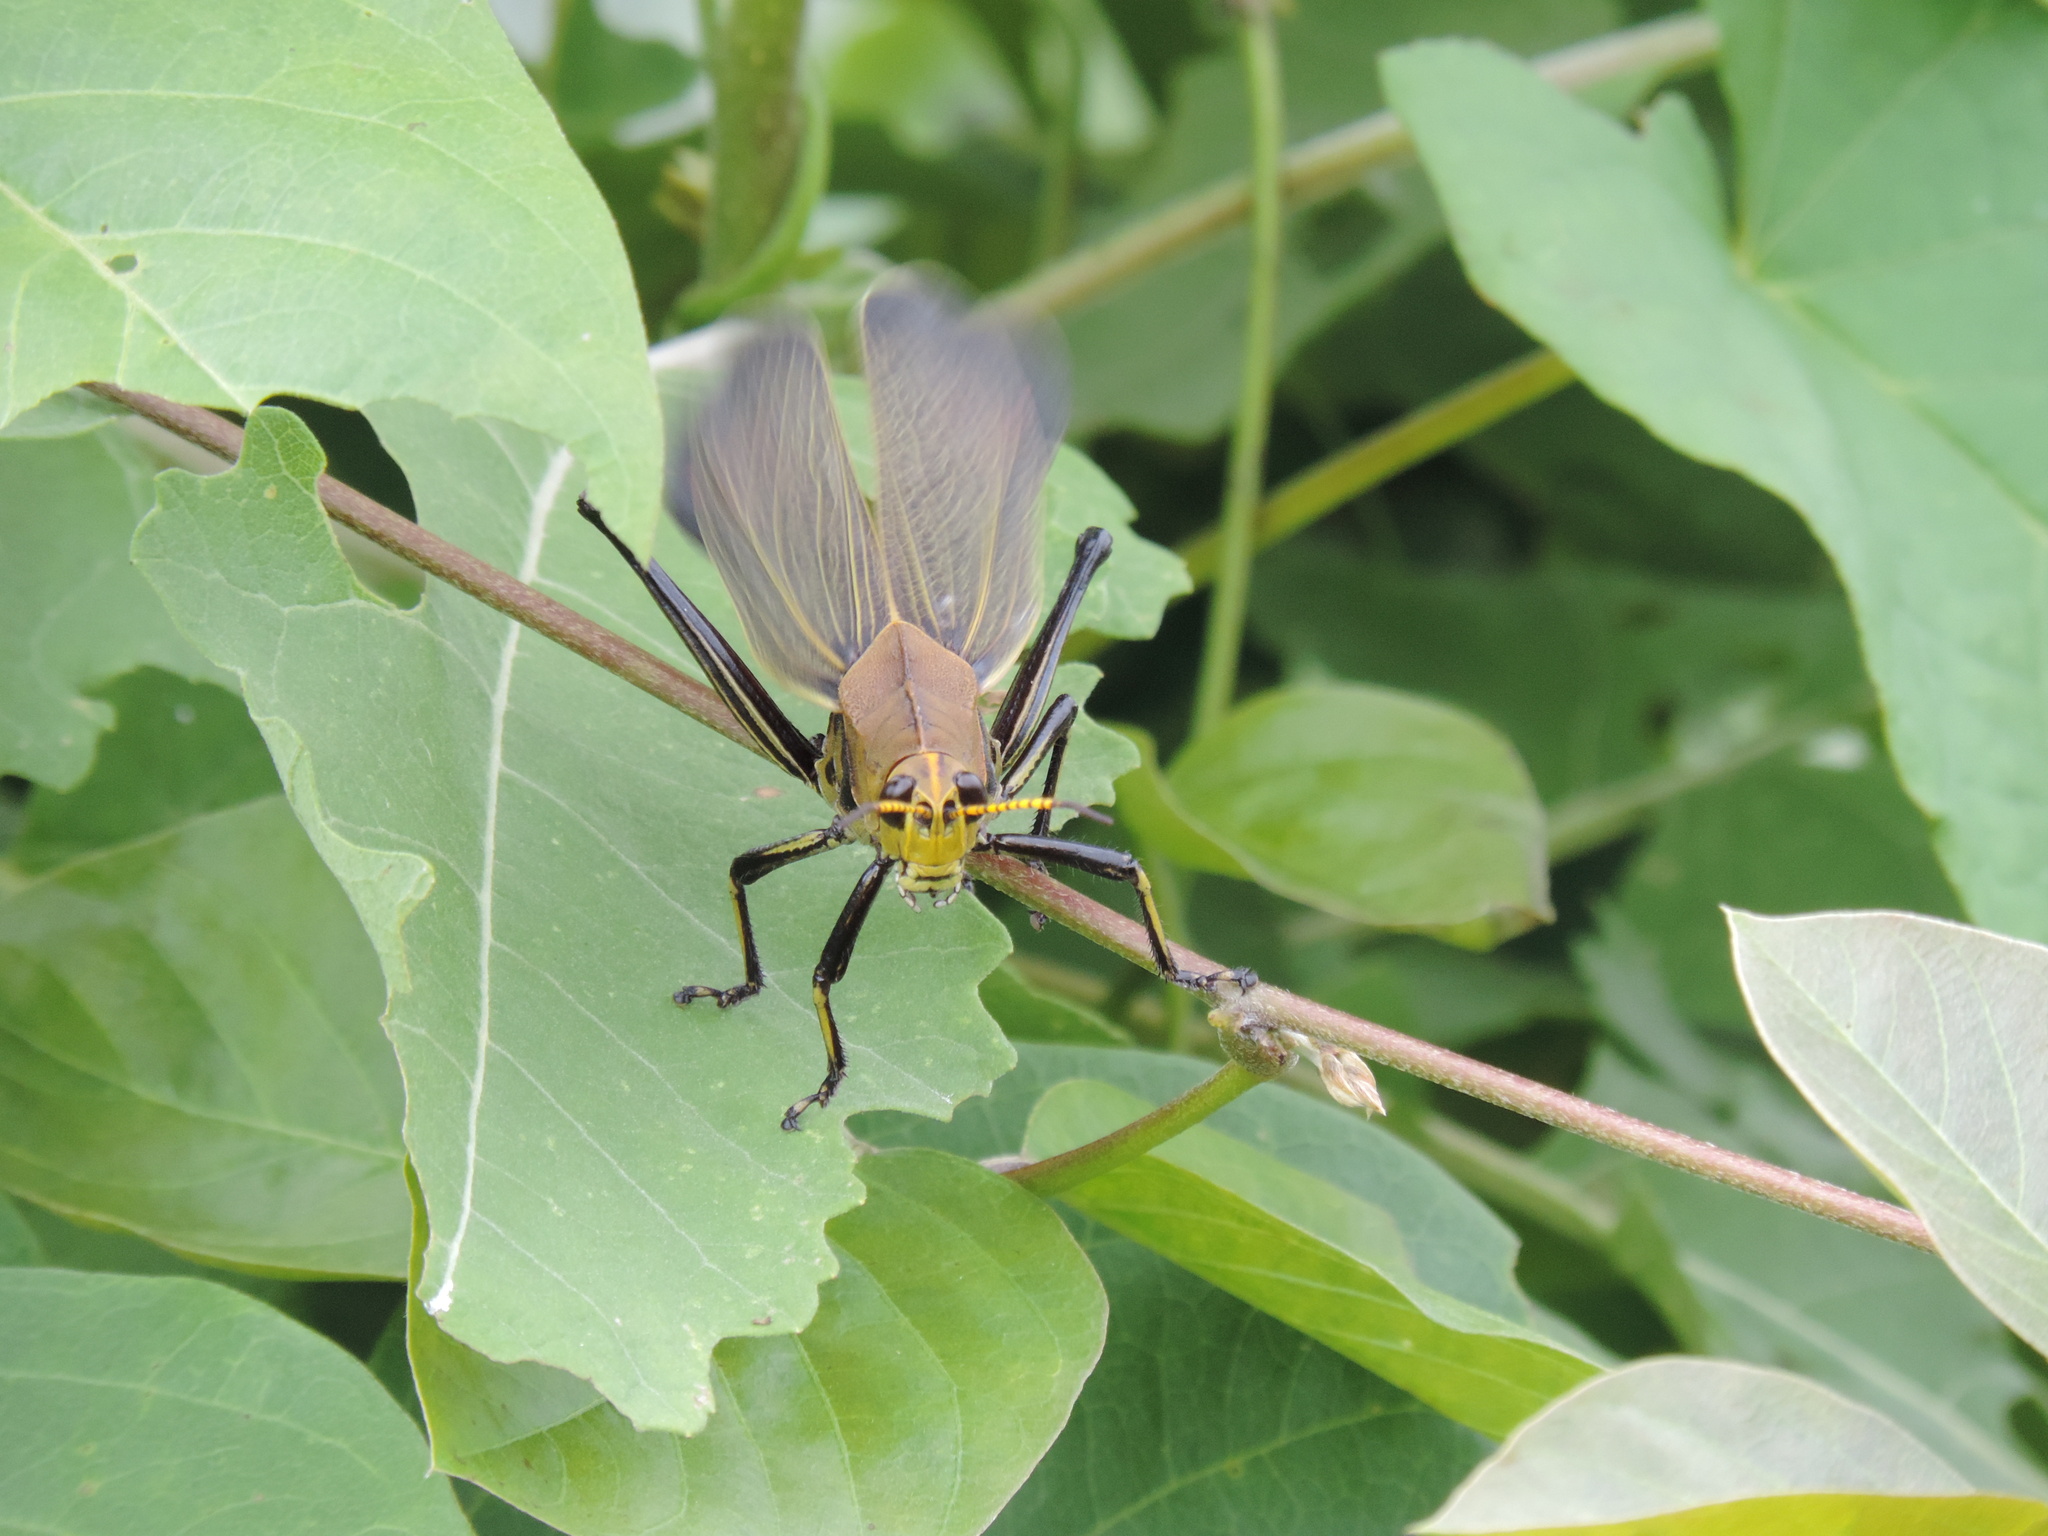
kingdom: Animalia
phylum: Arthropoda
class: Insecta
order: Orthoptera
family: Romaleidae
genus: Romalea
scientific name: Romalea
